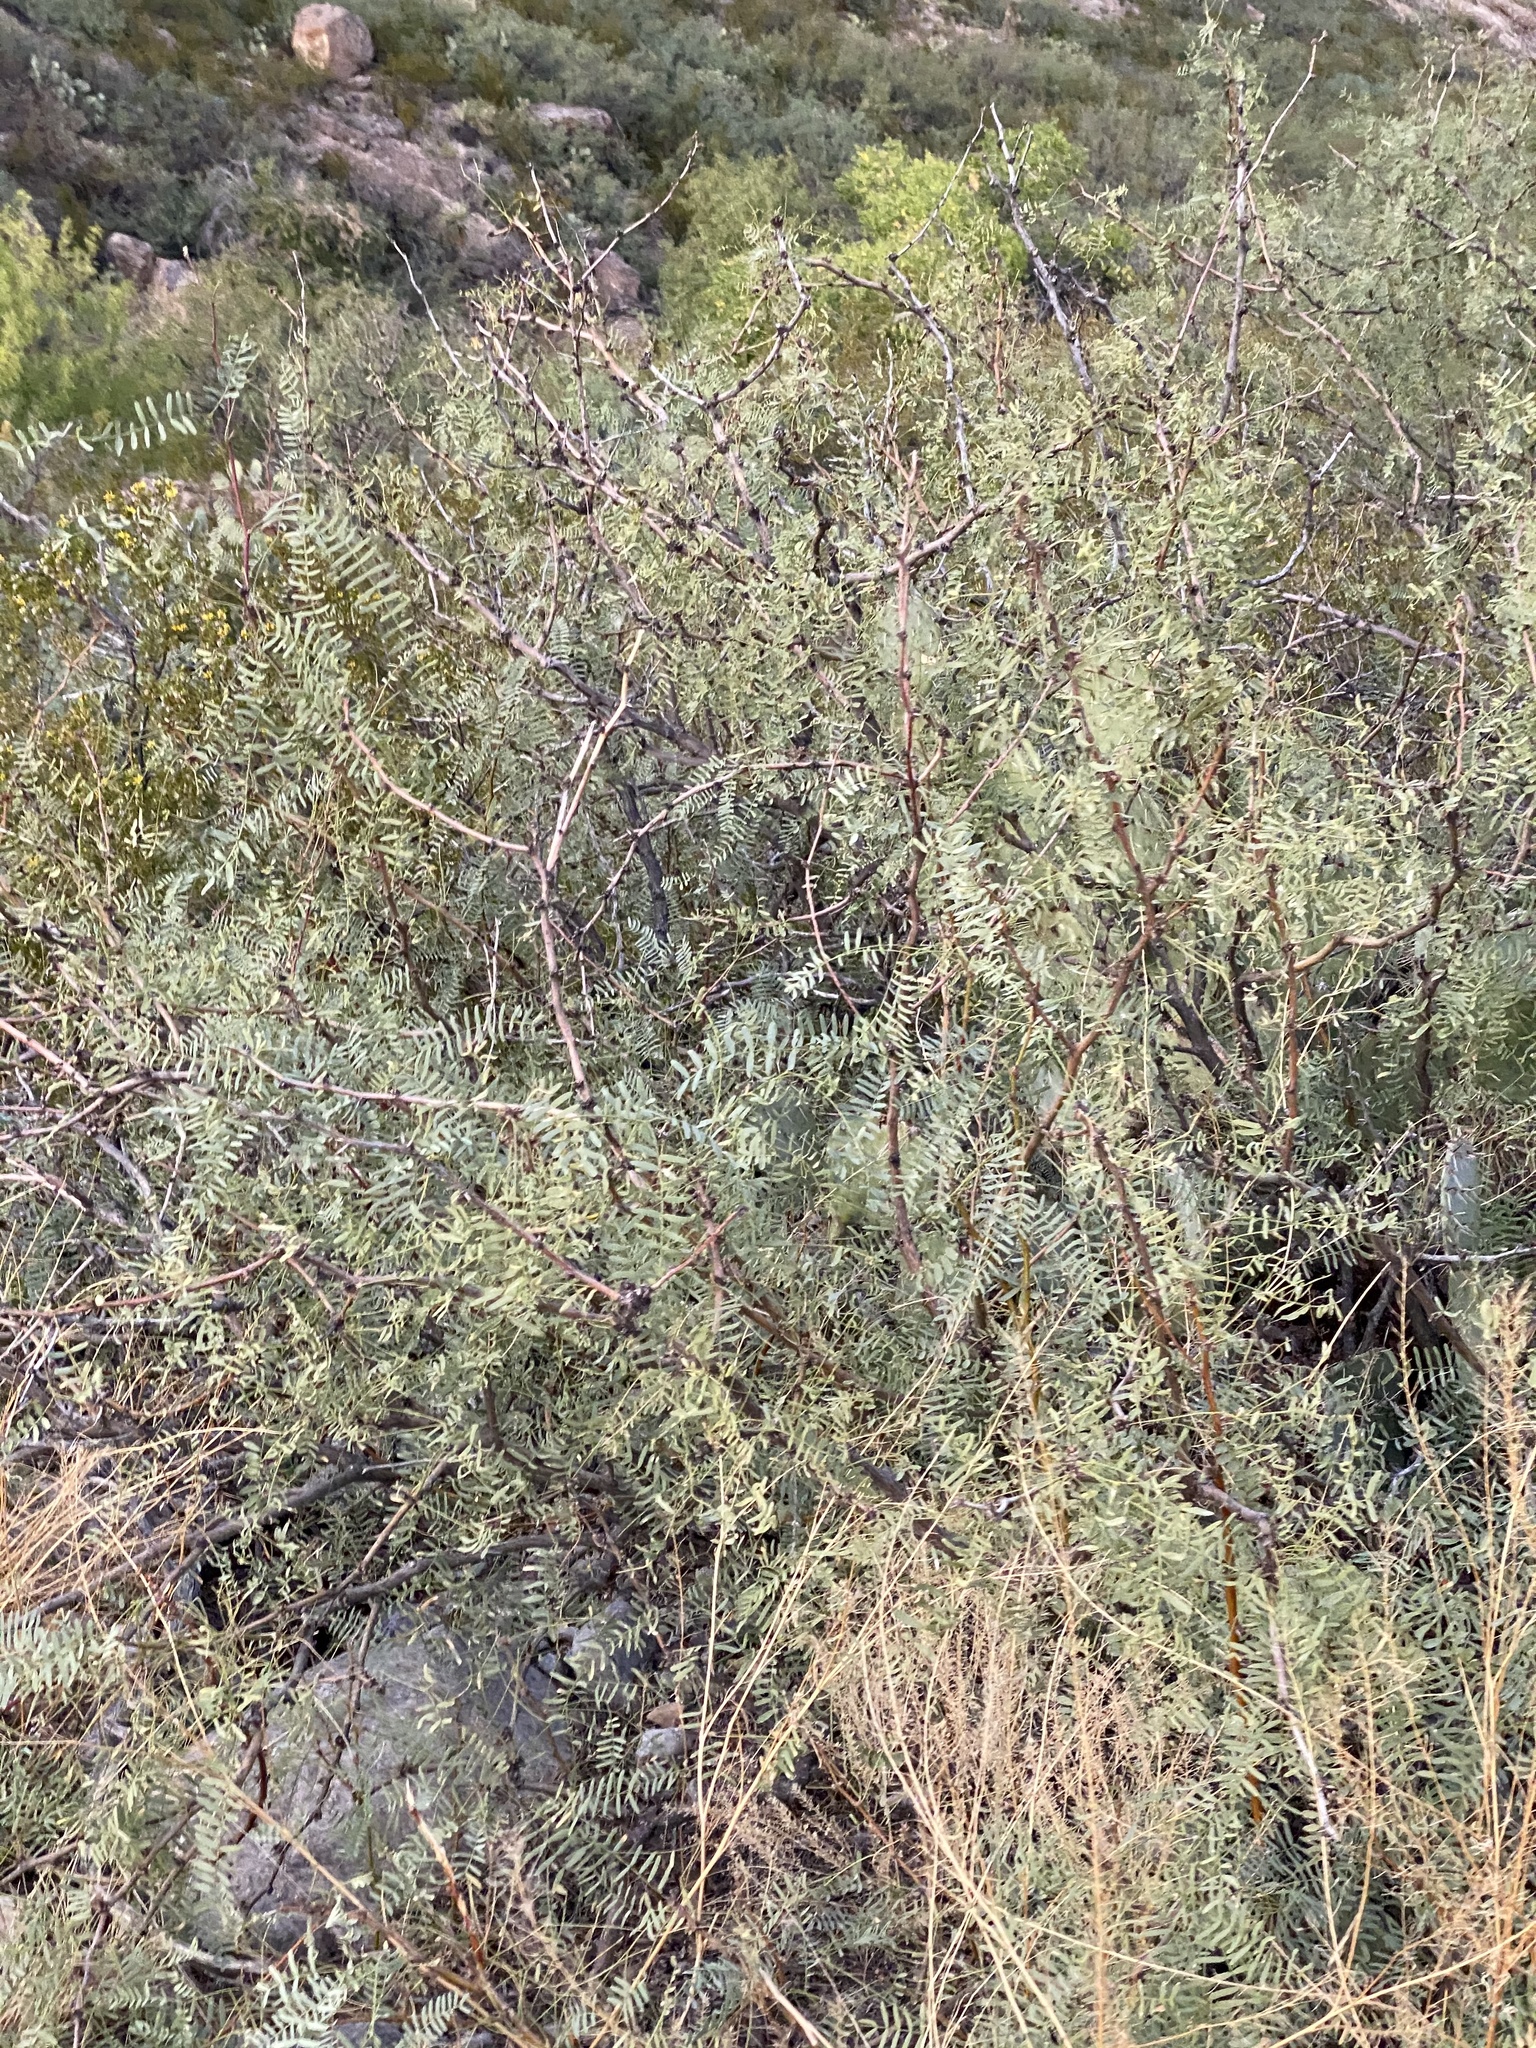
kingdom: Plantae
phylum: Tracheophyta
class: Magnoliopsida
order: Fabales
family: Fabaceae
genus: Prosopis
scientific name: Prosopis glandulosa
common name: Honey mesquite
